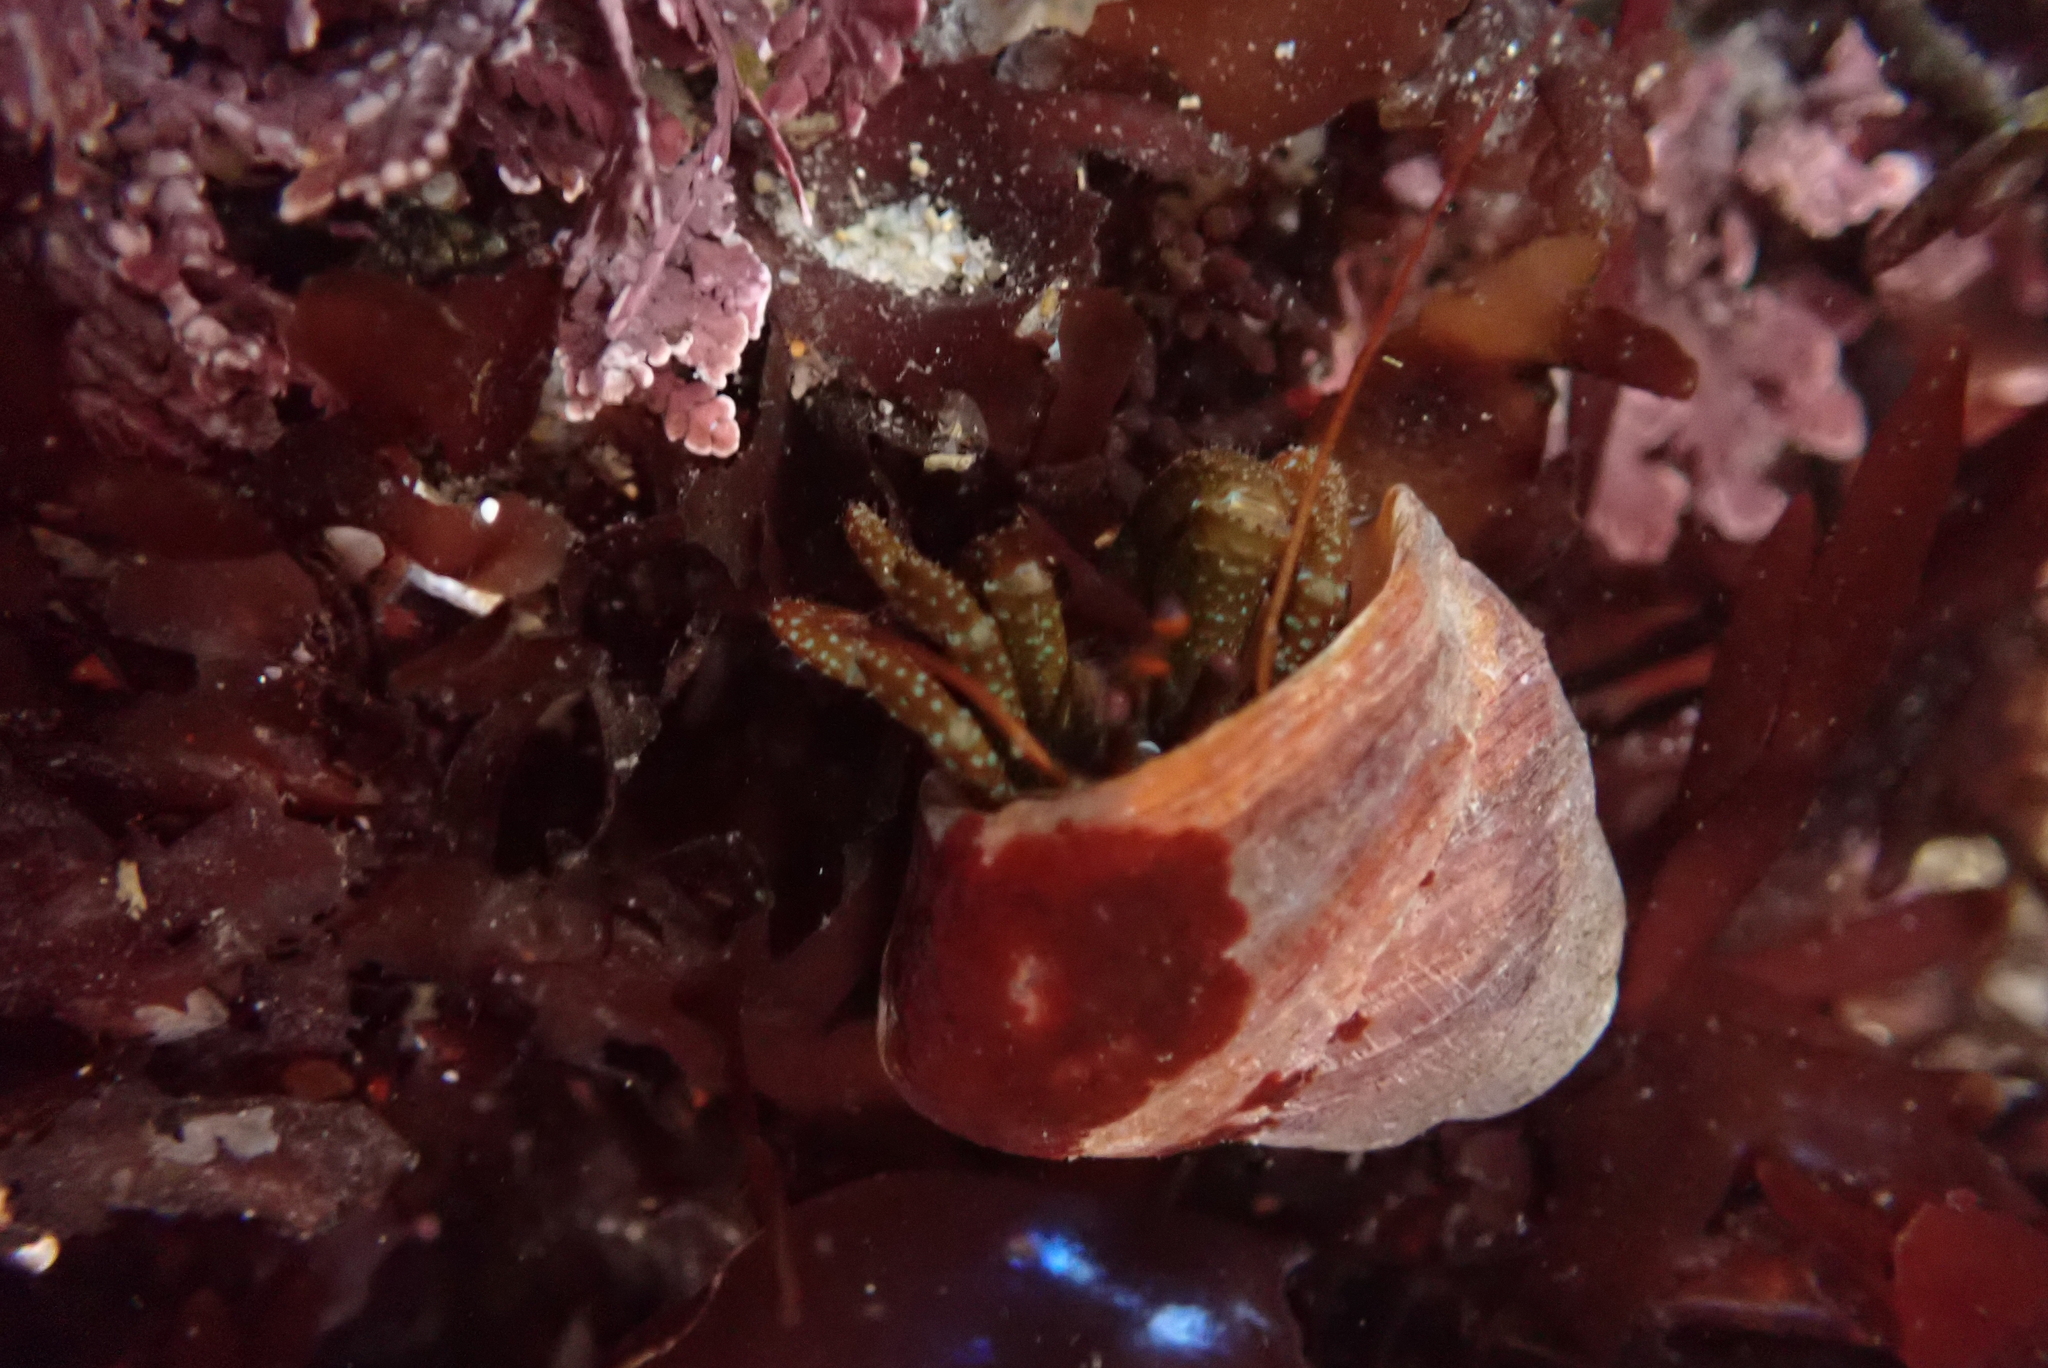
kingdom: Animalia
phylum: Arthropoda
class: Malacostraca
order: Decapoda
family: Paguridae
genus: Pagurus
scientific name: Pagurus granosimanus
